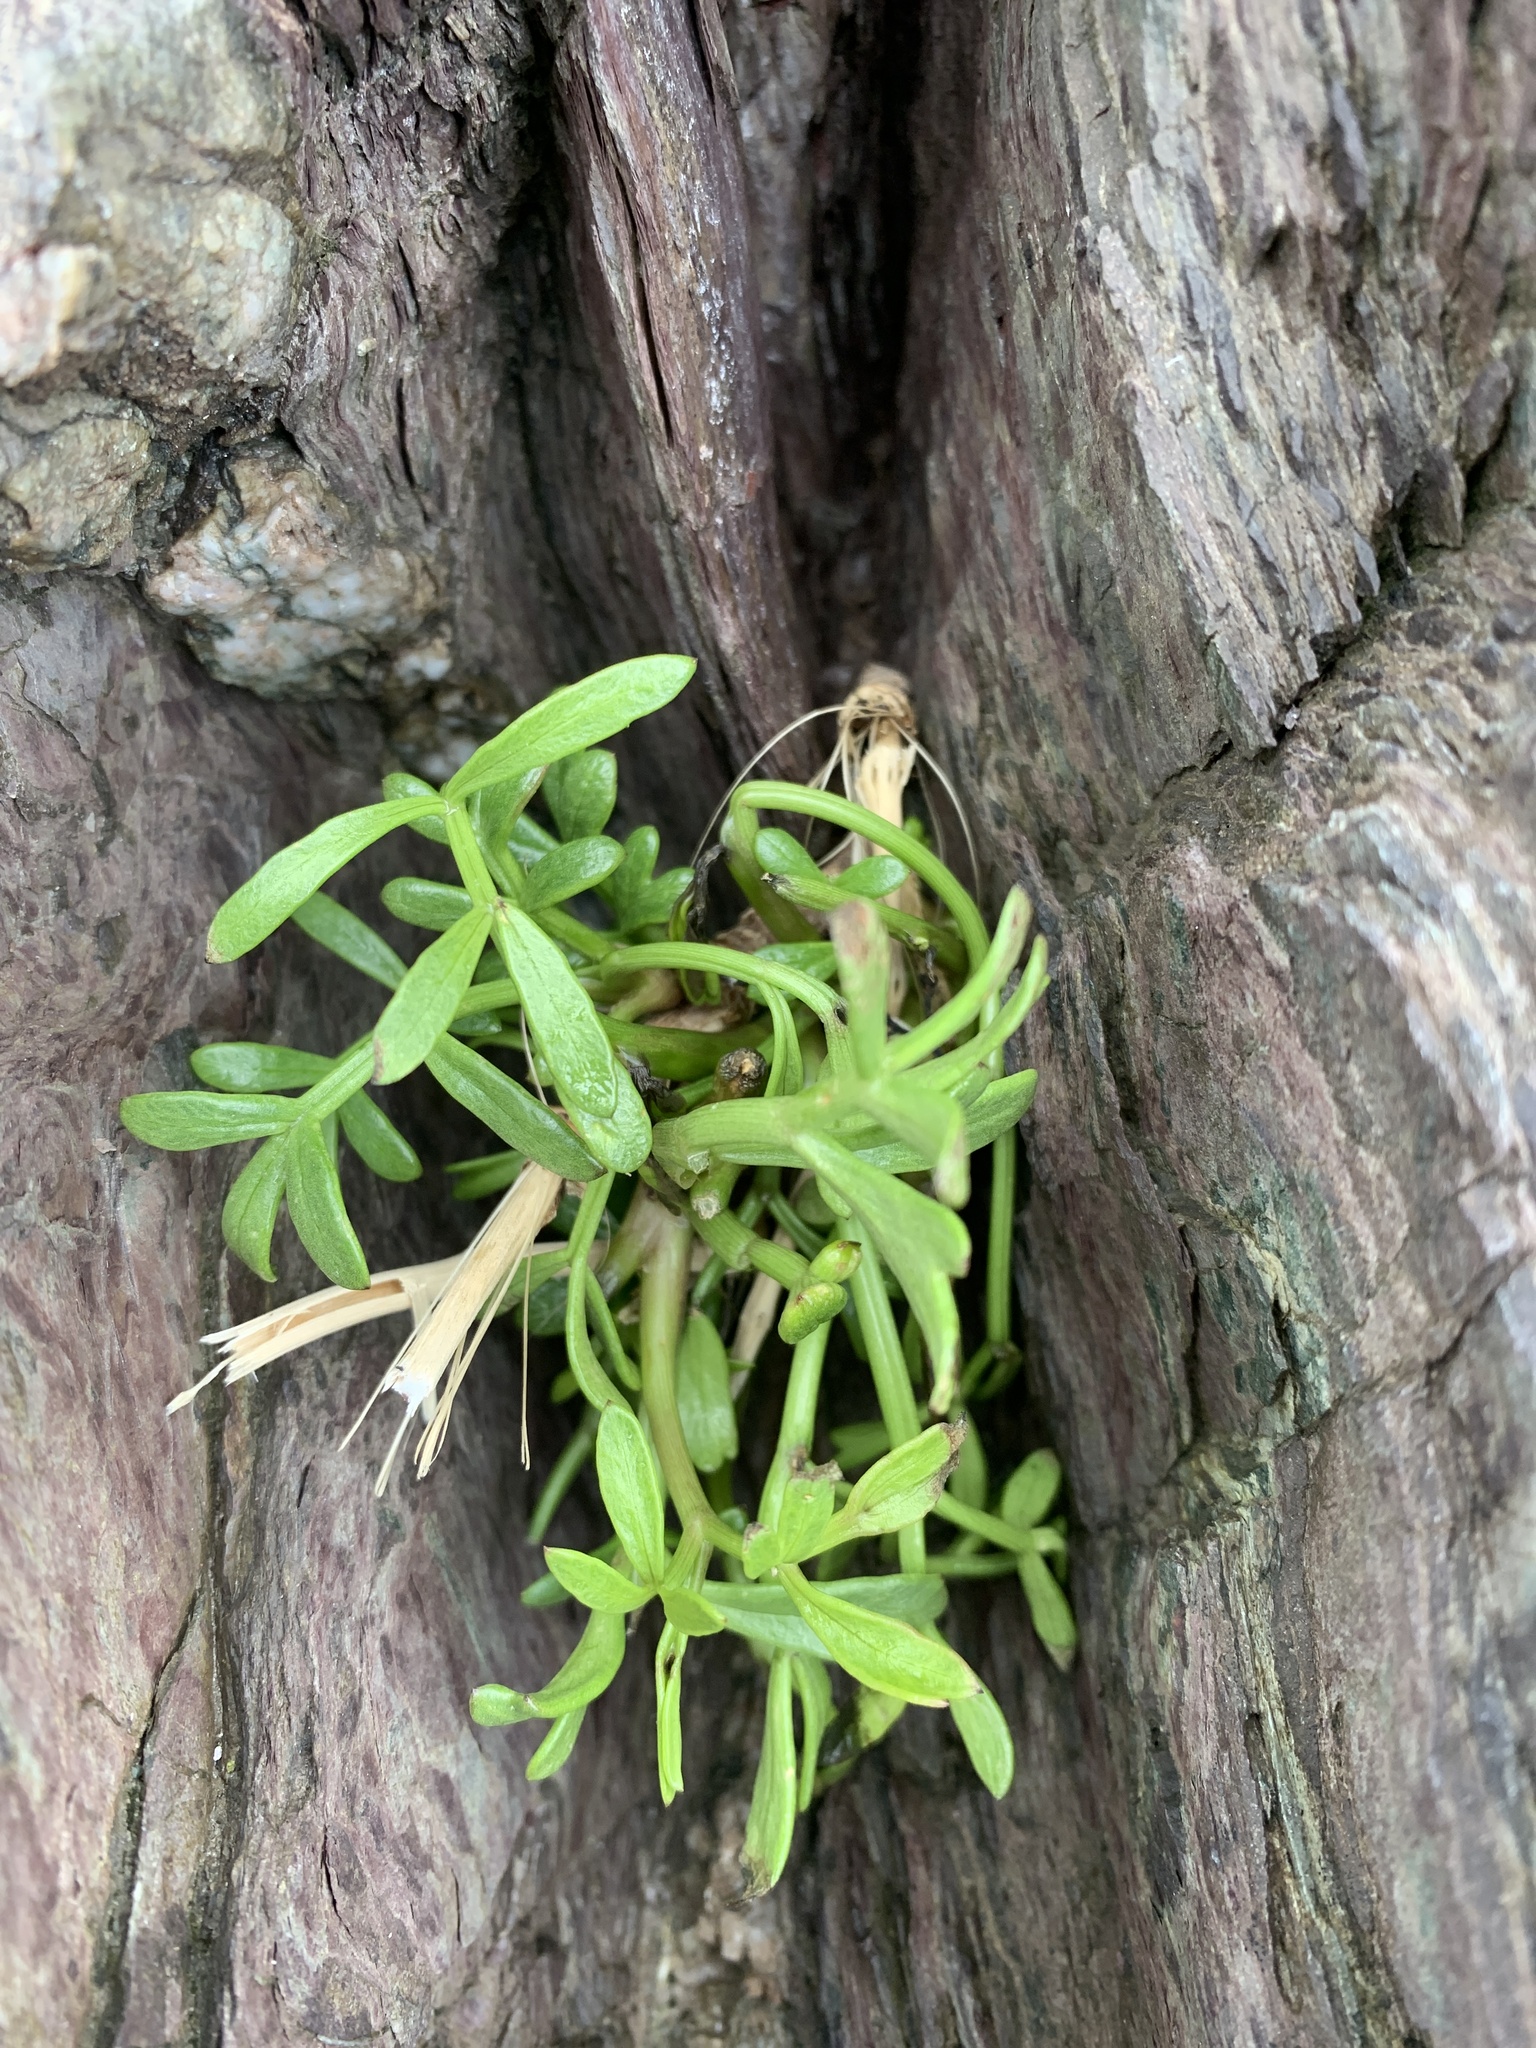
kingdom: Plantae
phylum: Tracheophyta
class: Magnoliopsida
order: Apiales
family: Apiaceae
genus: Crithmum
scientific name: Crithmum maritimum
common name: Rock samphire
